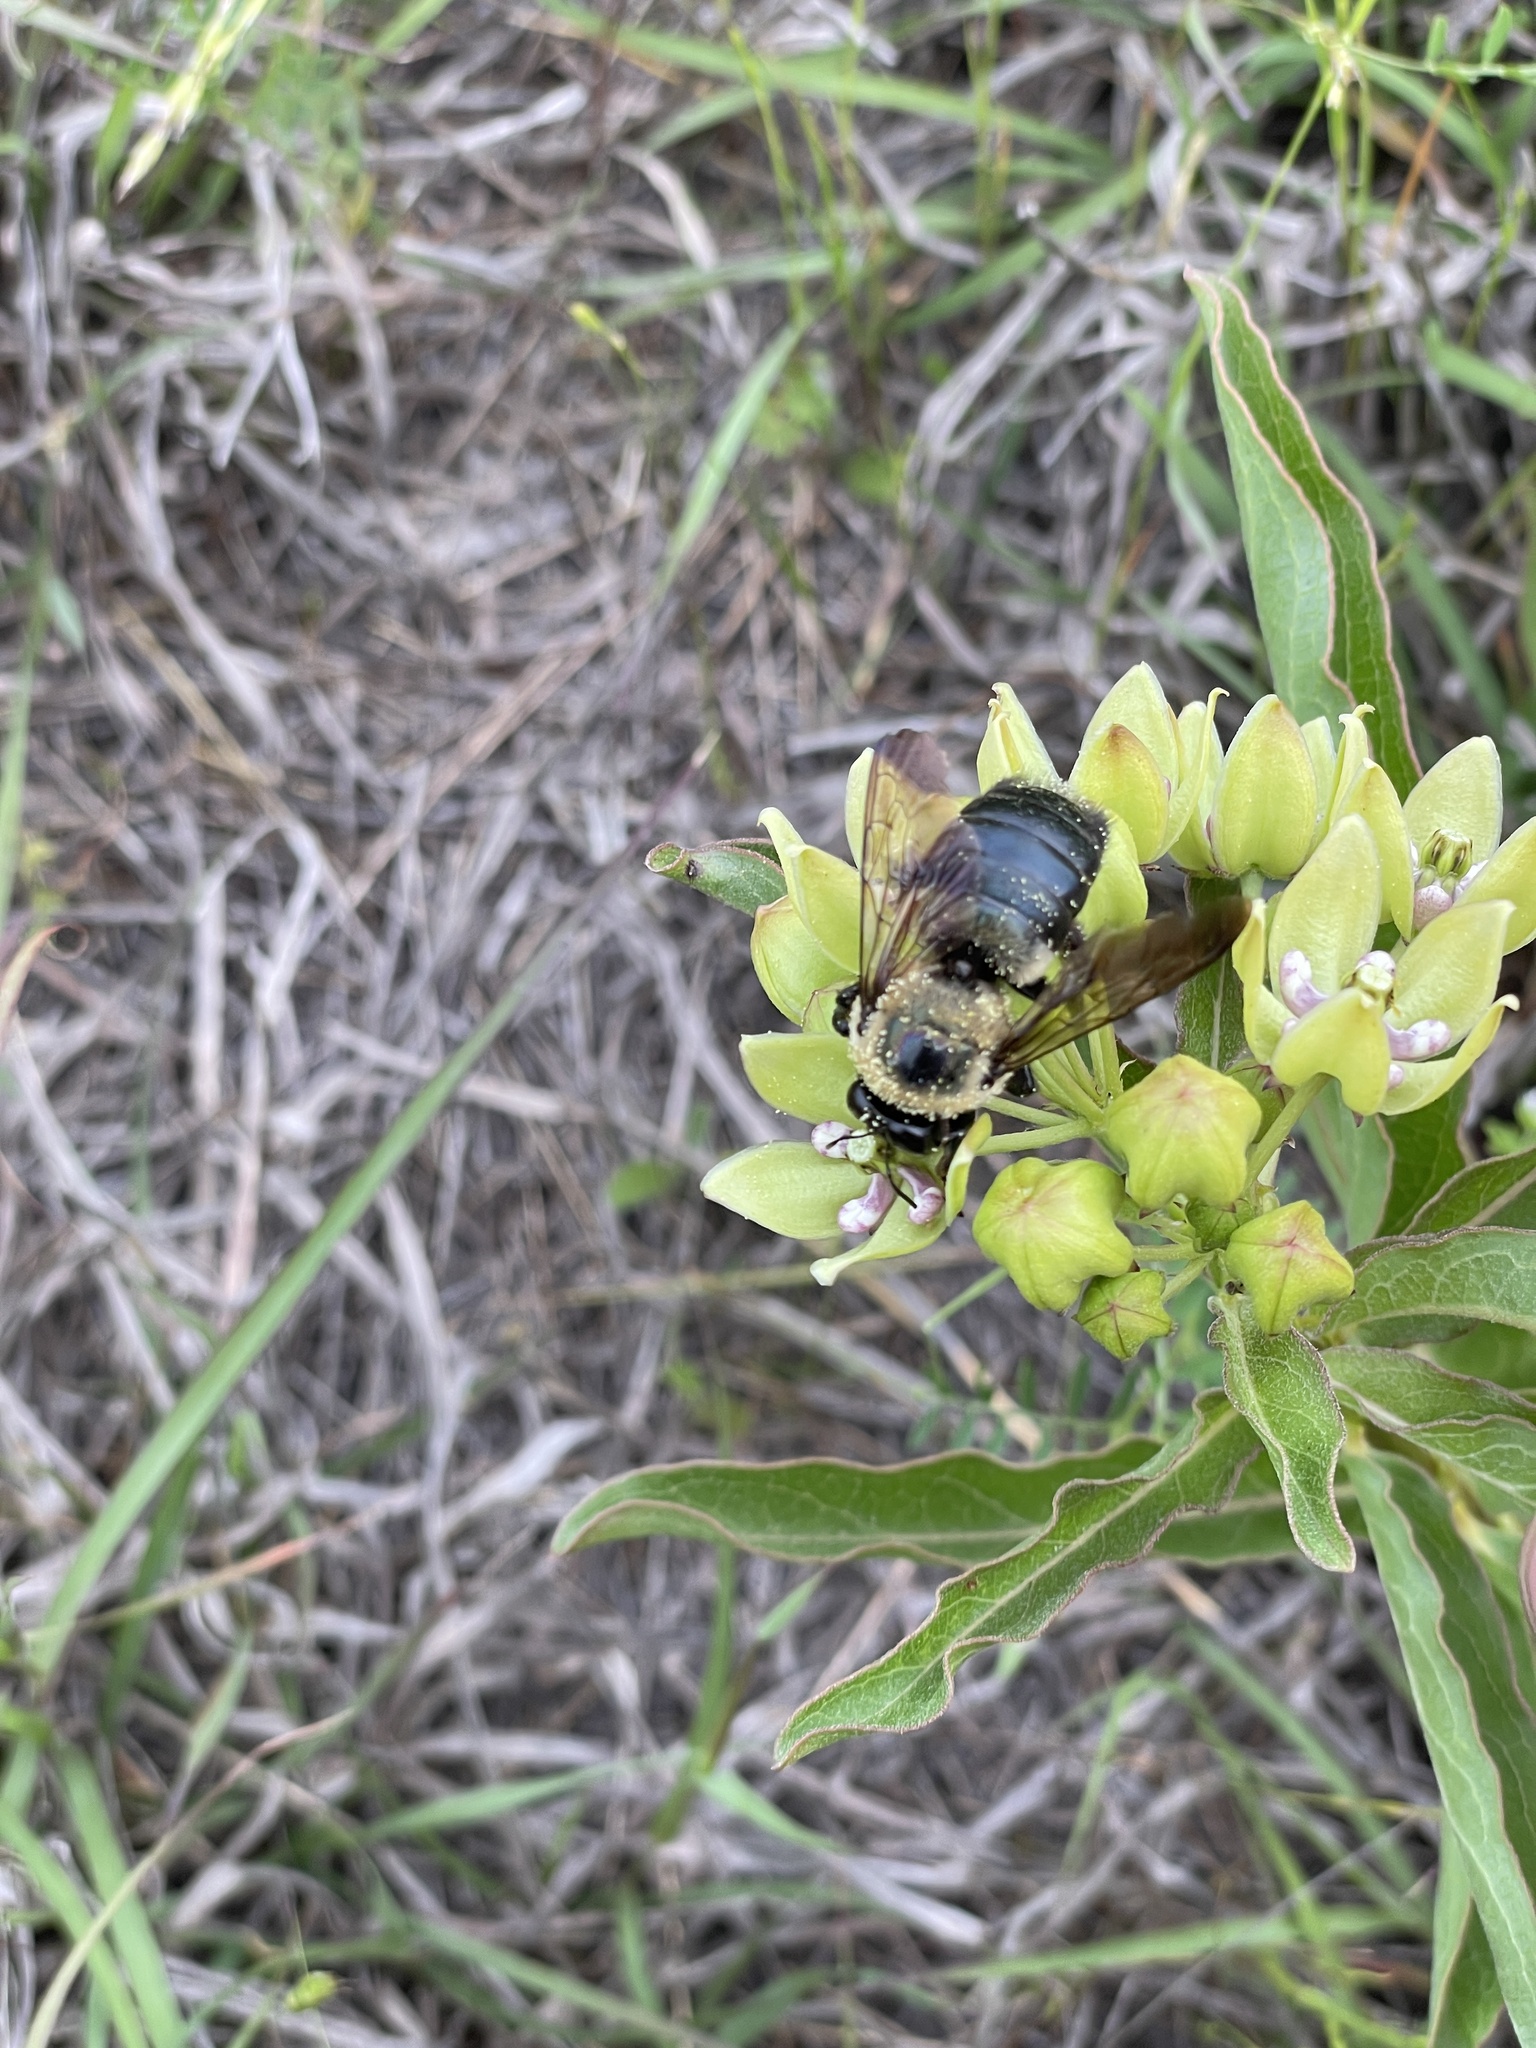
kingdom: Plantae
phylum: Tracheophyta
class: Magnoliopsida
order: Gentianales
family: Apocynaceae
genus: Asclepias
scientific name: Asclepias viridis
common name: Antelope-horns
